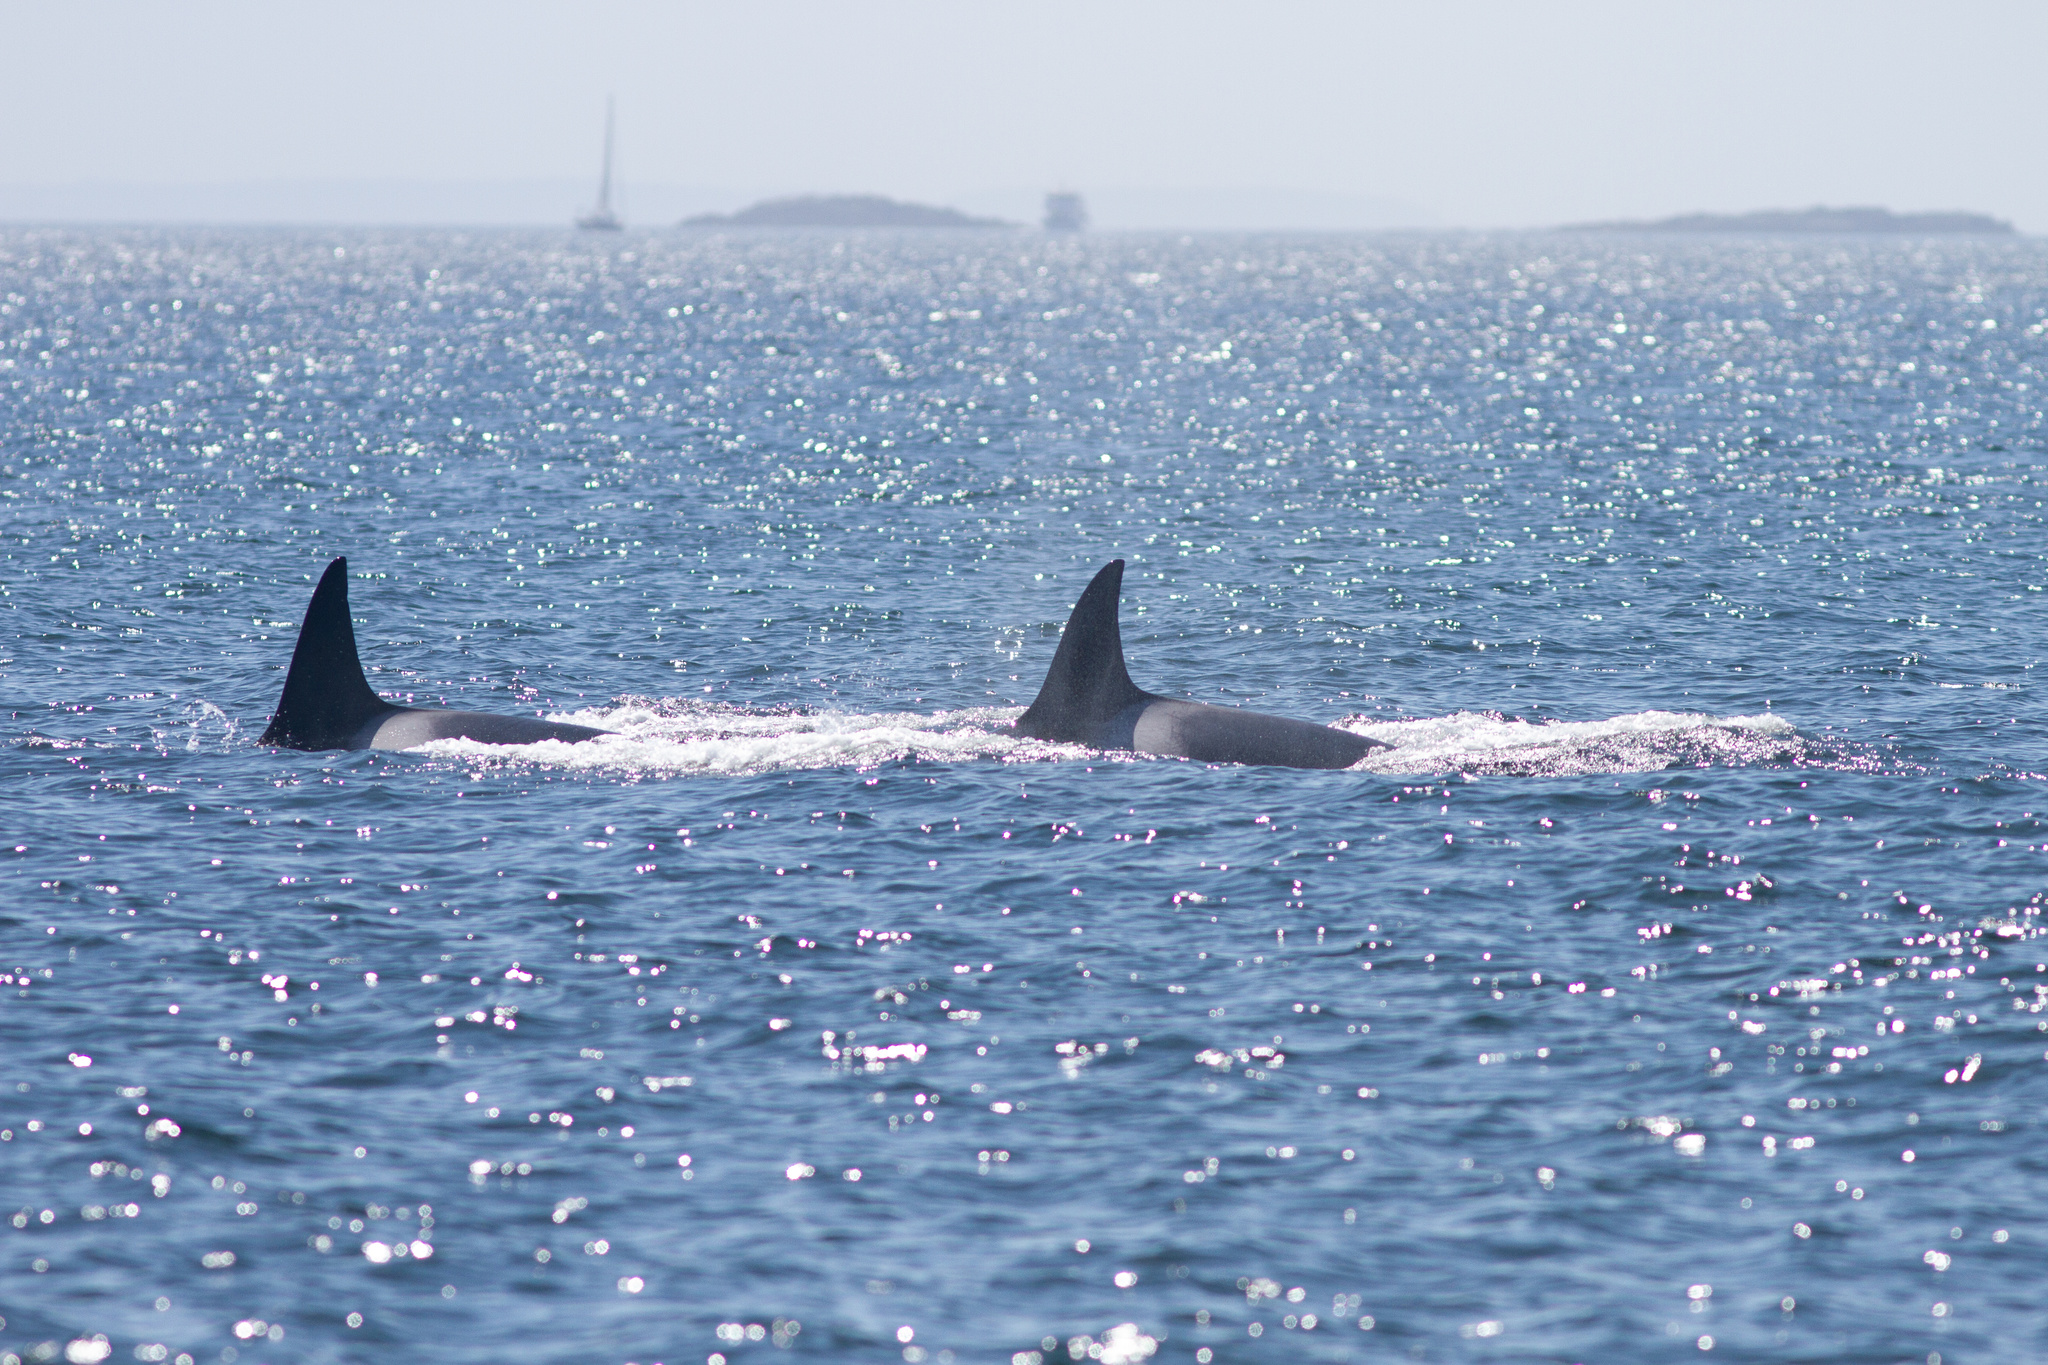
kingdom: Animalia
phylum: Chordata
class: Mammalia
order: Cetacea
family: Delphinidae
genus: Orcinus
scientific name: Orcinus orca
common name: Killer whale
